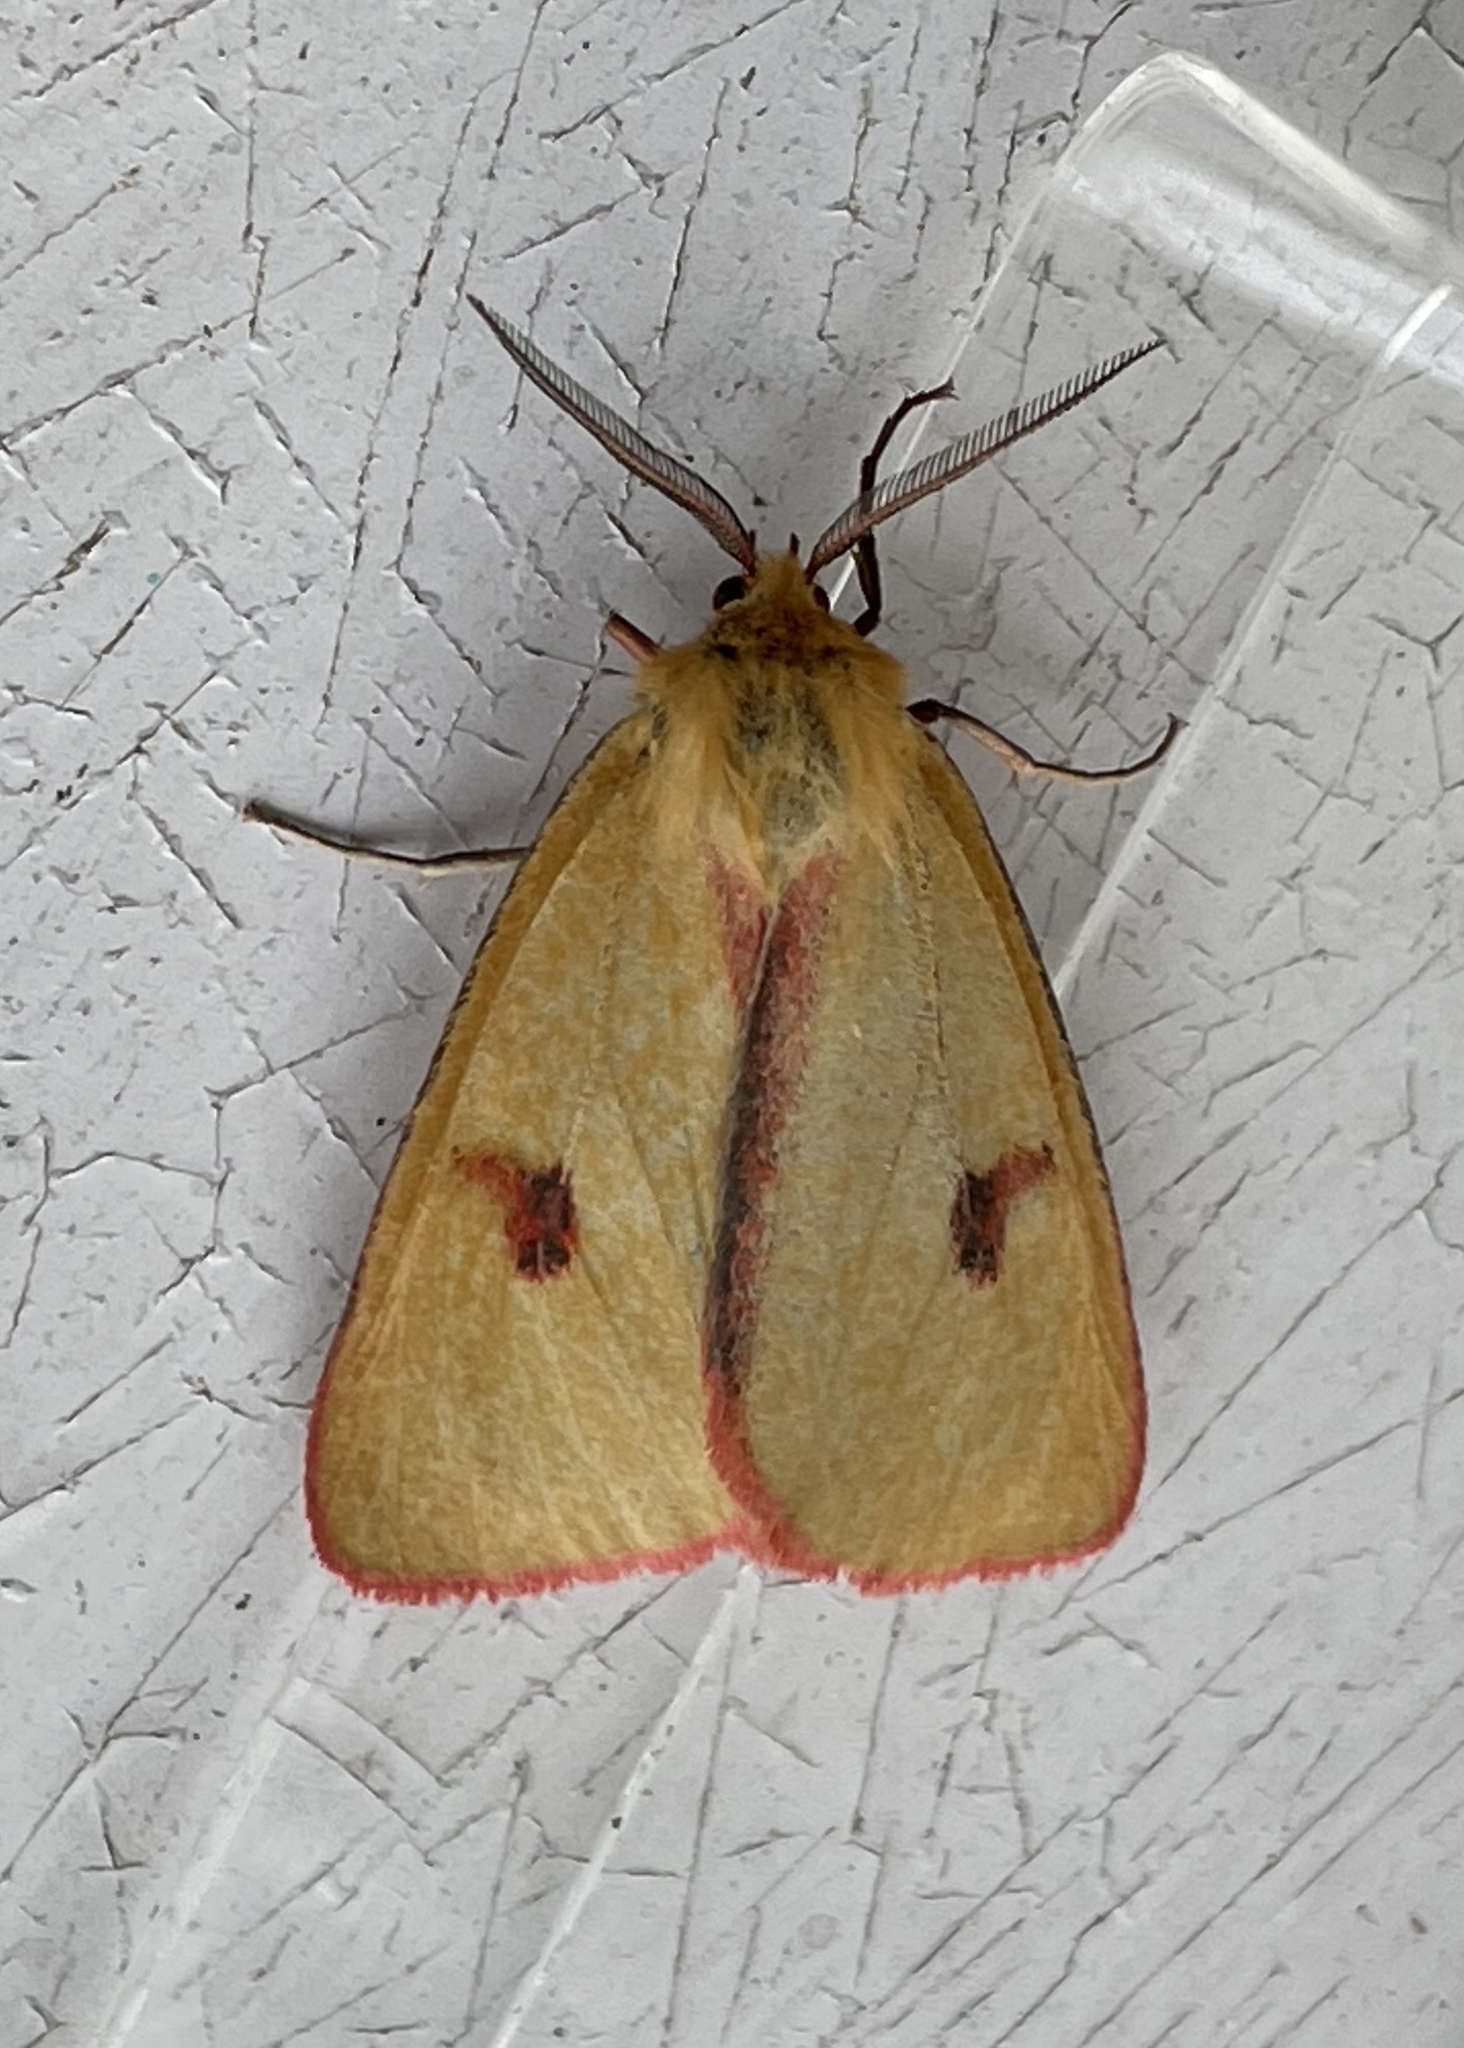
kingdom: Animalia
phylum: Arthropoda
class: Insecta
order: Lepidoptera
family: Erebidae
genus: Diacrisia
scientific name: Diacrisia sannio
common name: Clouded buff
